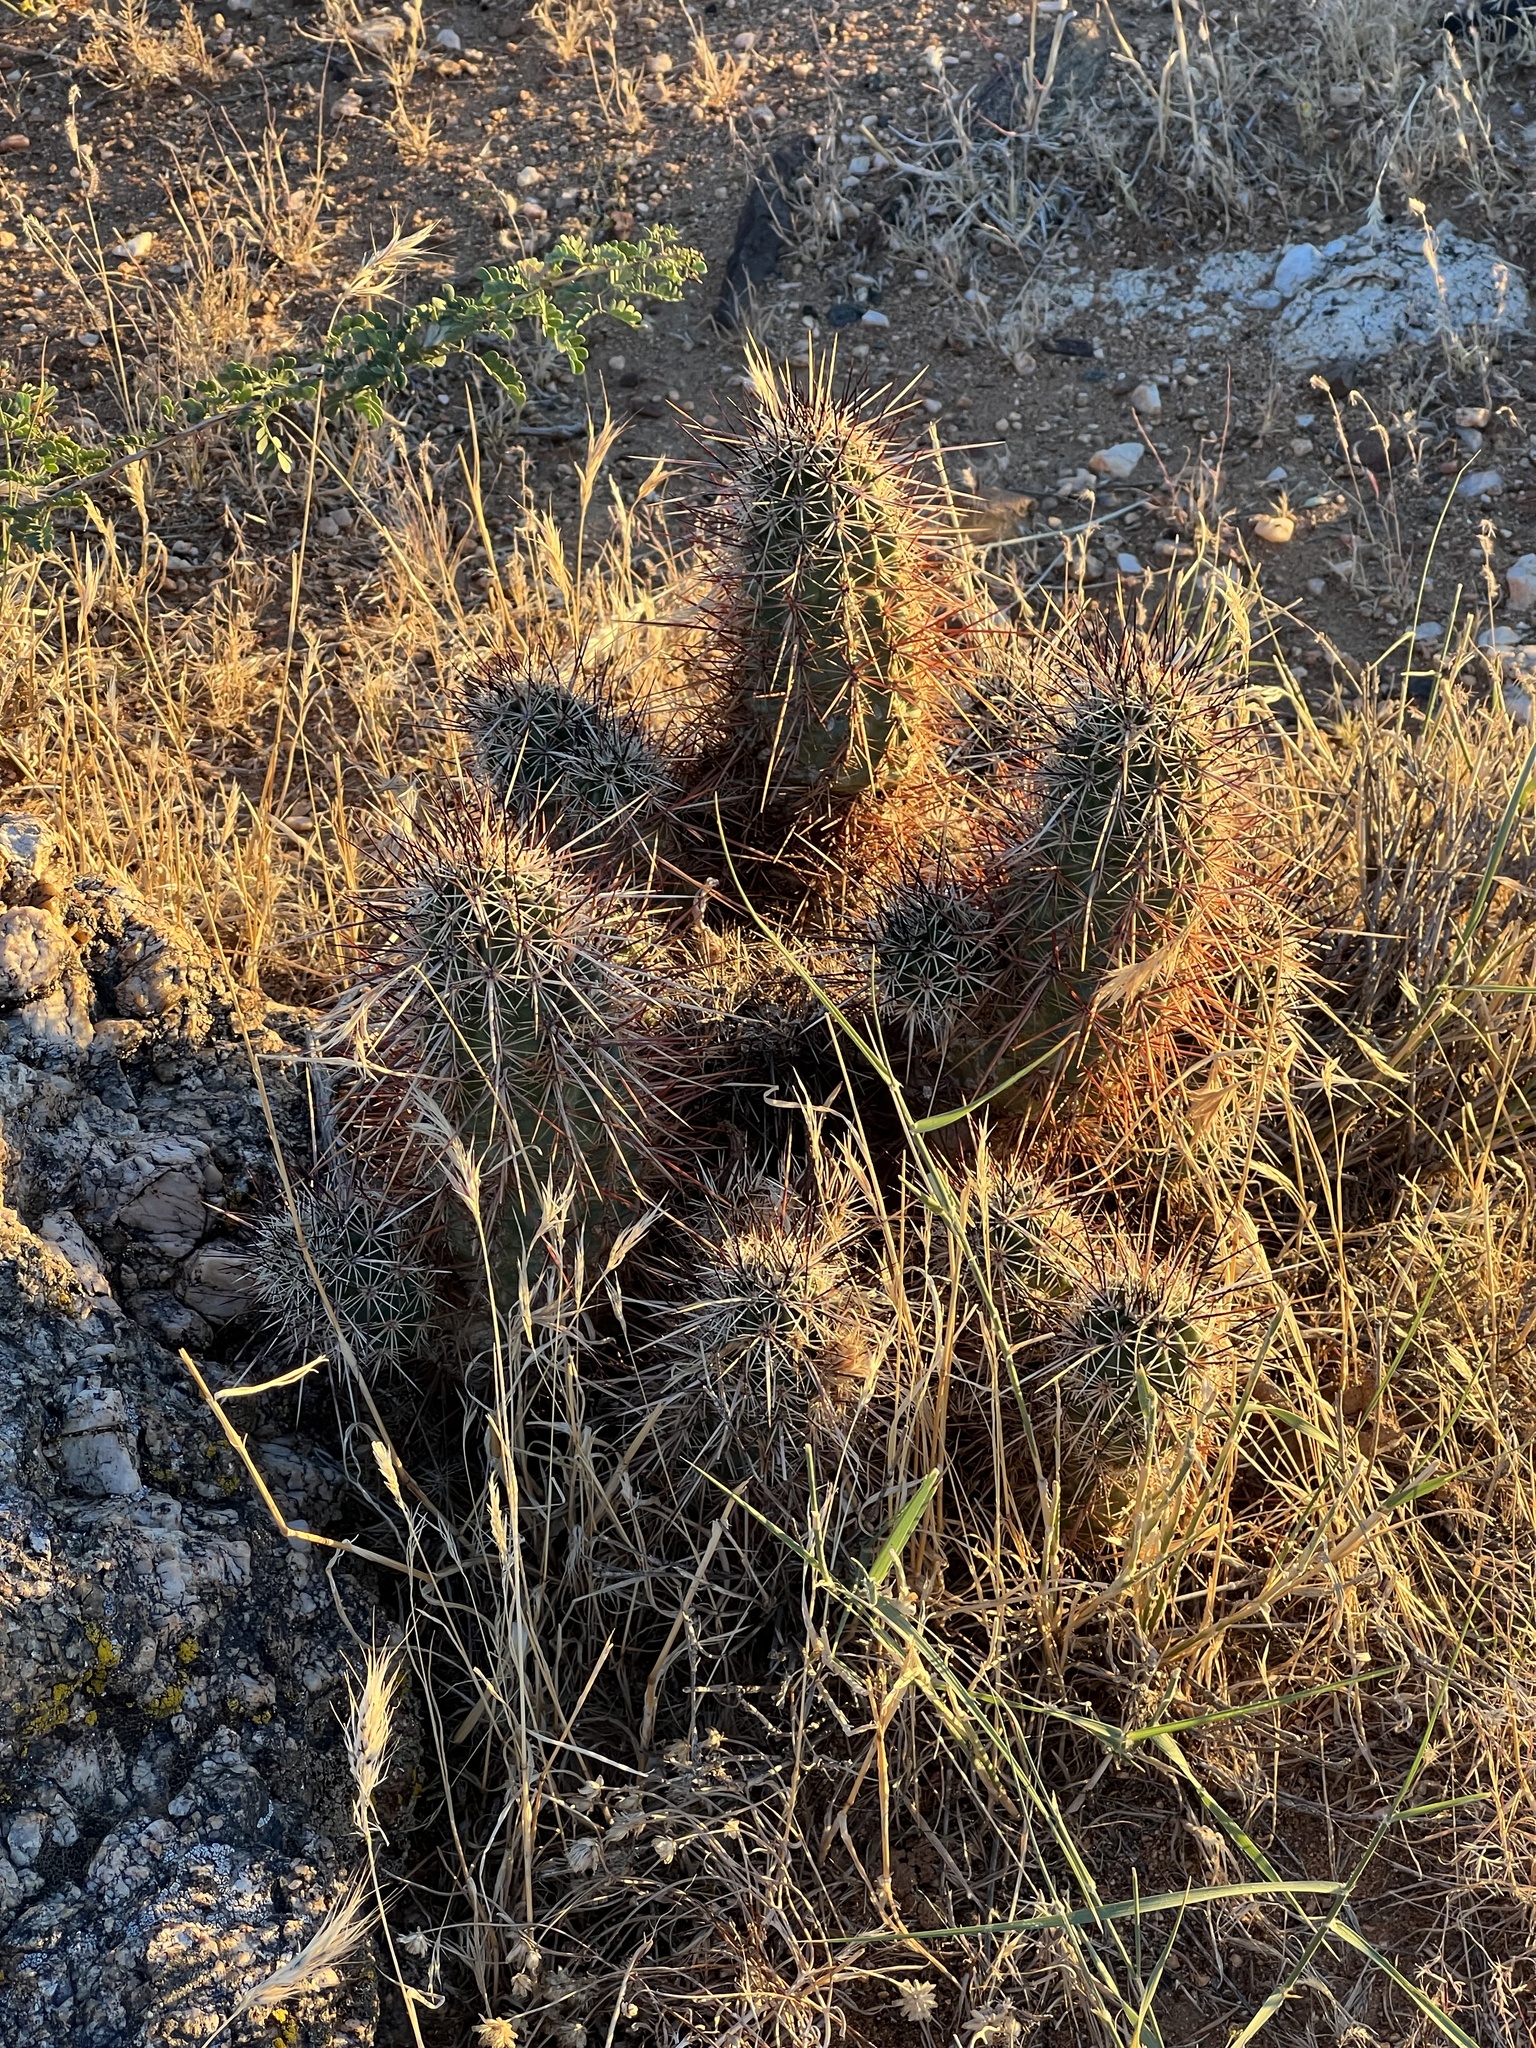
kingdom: Plantae
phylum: Tracheophyta
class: Magnoliopsida
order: Caryophyllales
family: Cactaceae
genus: Echinocereus
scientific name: Echinocereus engelmannii
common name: Engelmann's hedgehog cactus
